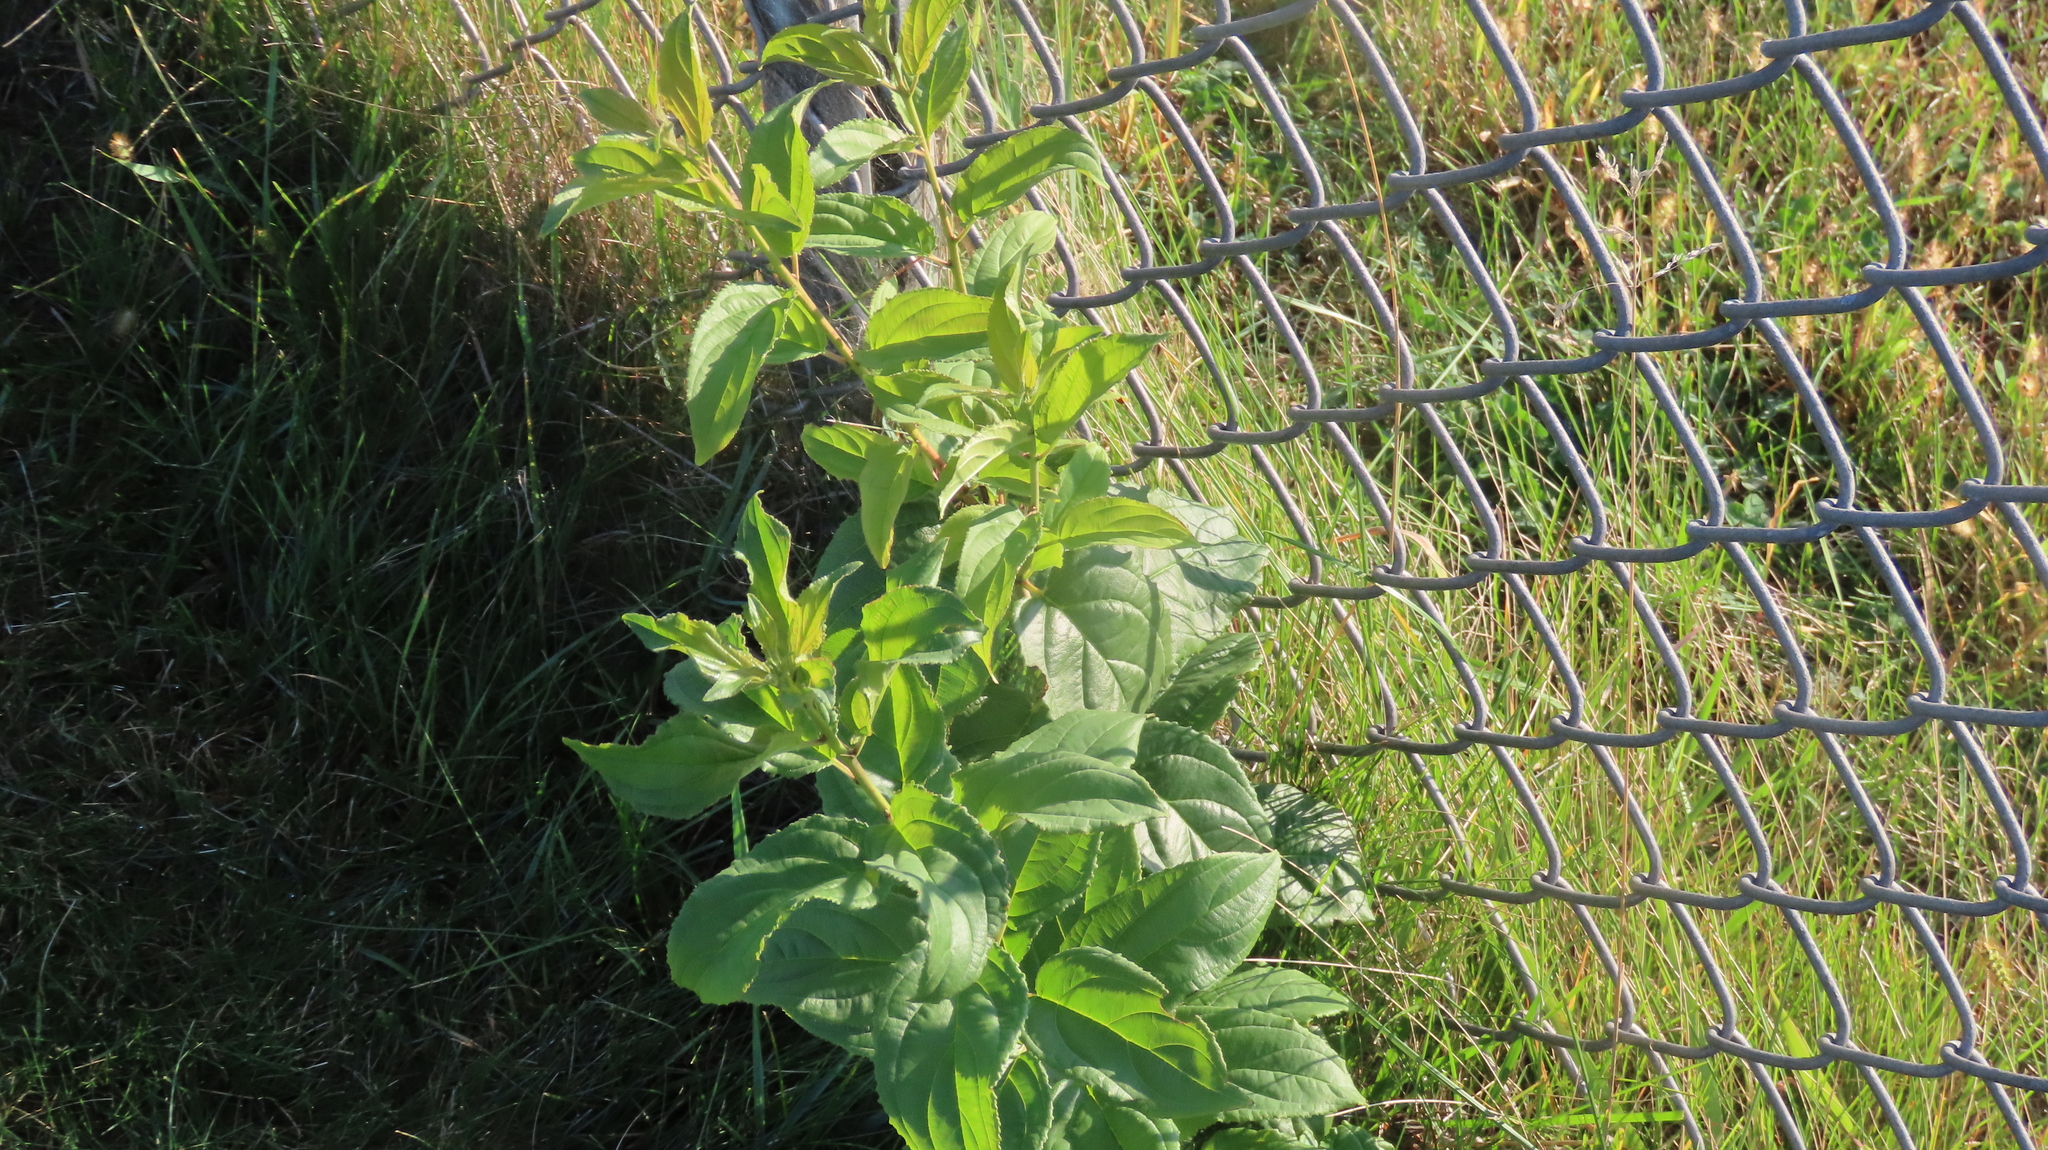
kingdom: Plantae
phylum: Tracheophyta
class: Magnoliopsida
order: Rosales
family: Rhamnaceae
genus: Rhamnus
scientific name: Rhamnus cathartica
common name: Common buckthorn
